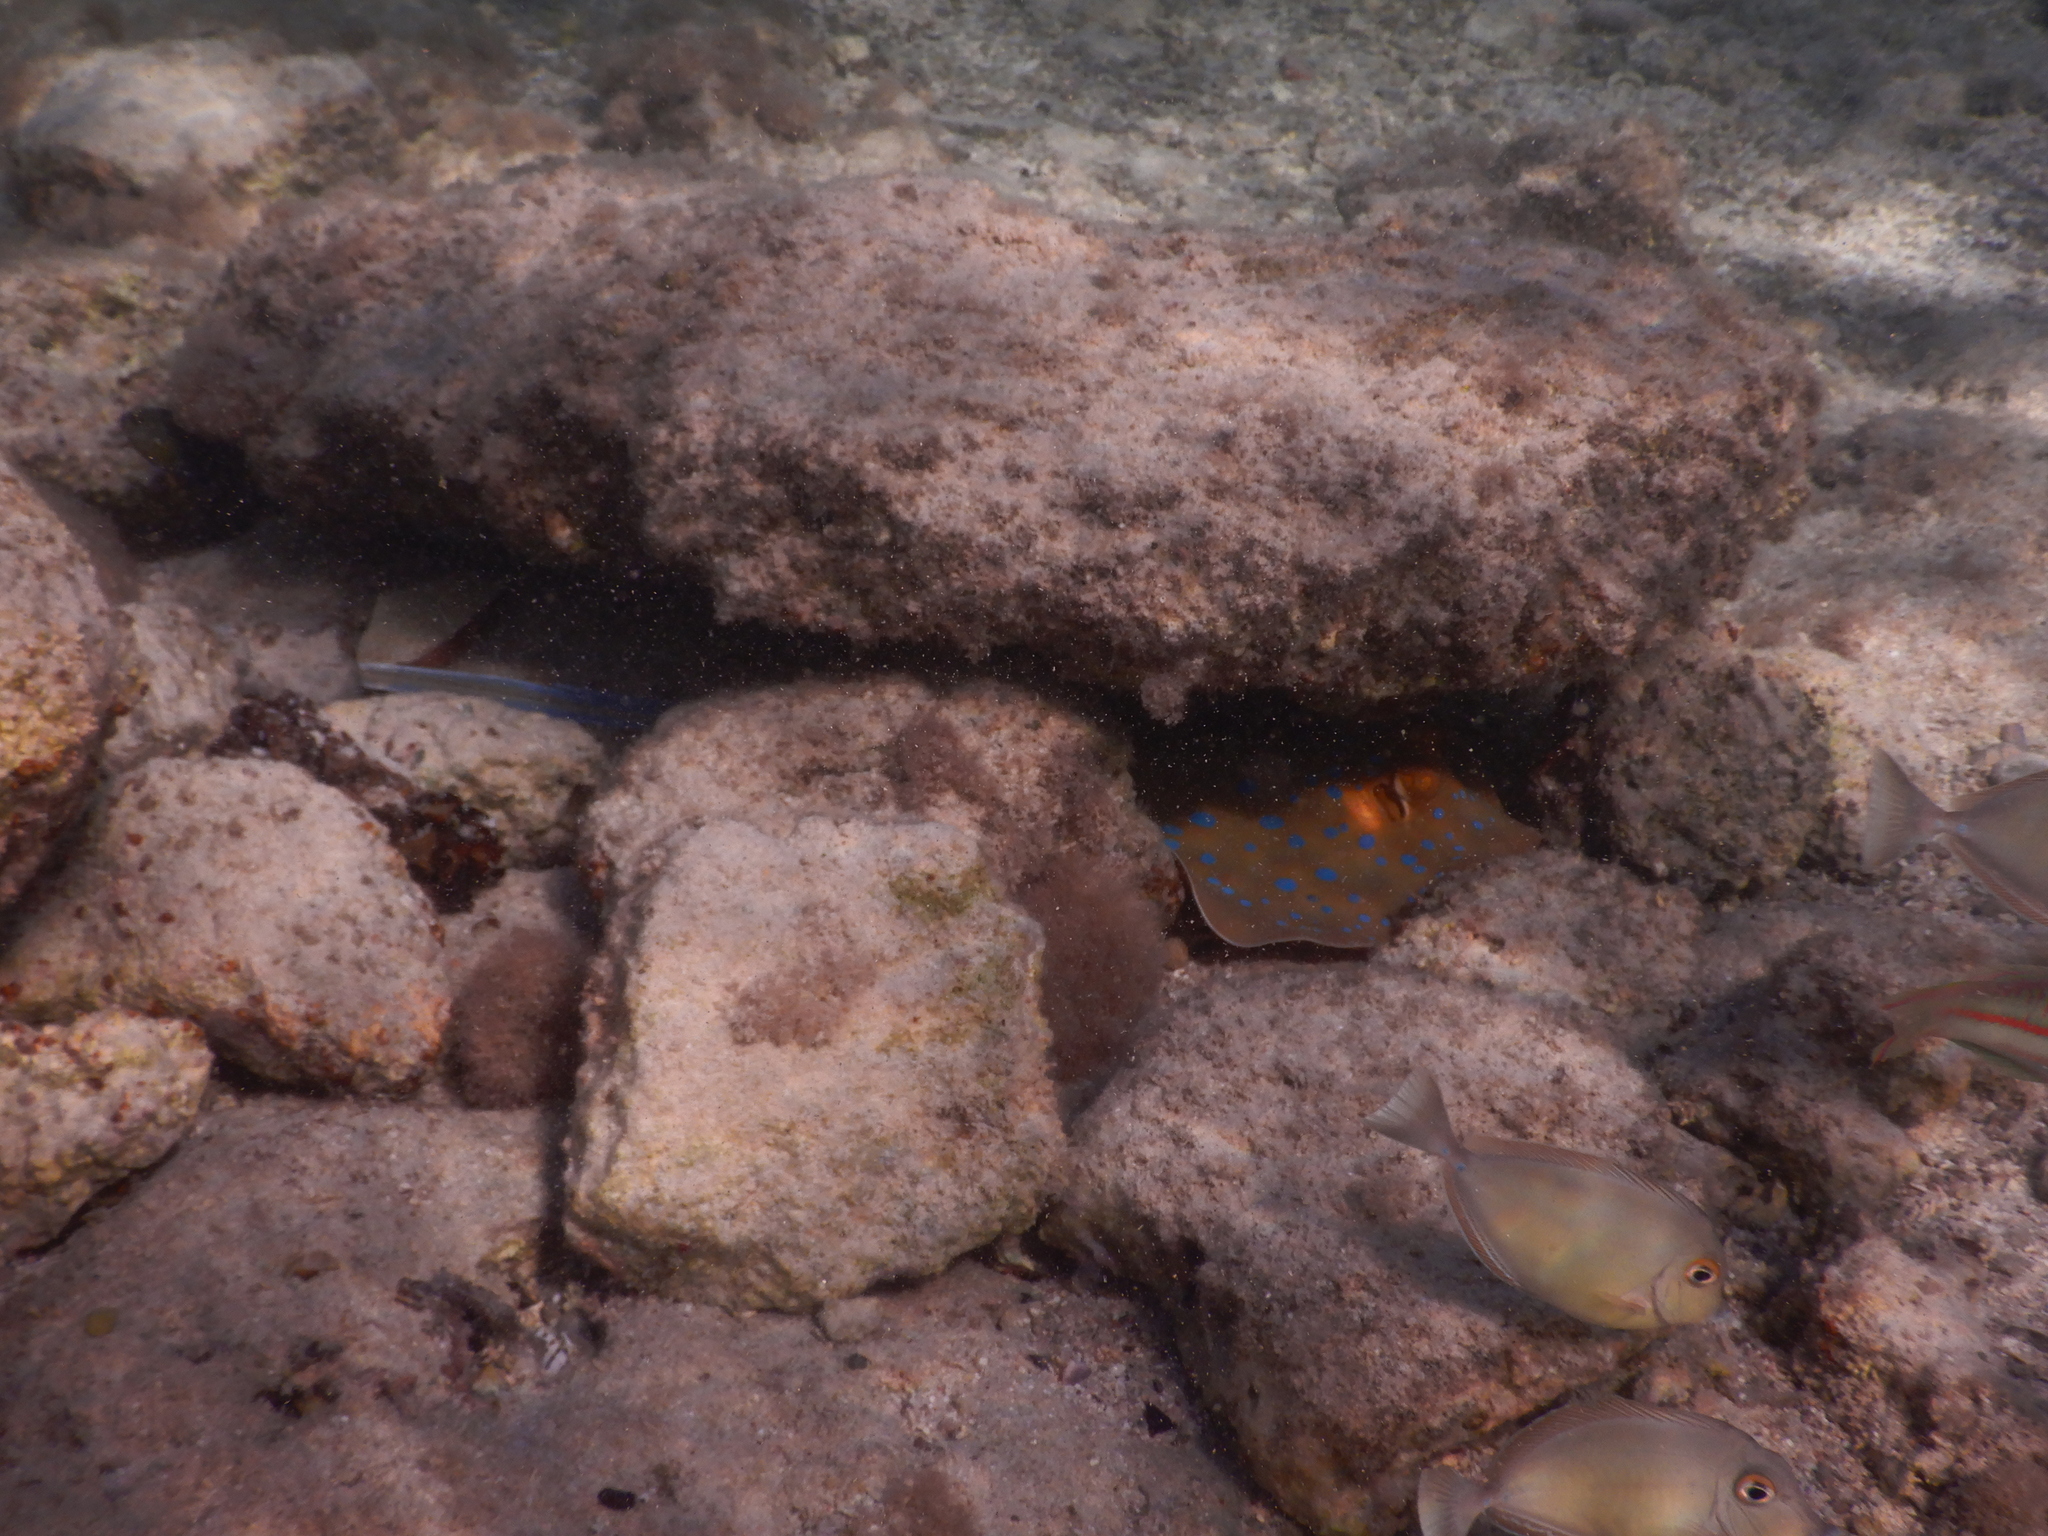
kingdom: Animalia
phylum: Chordata
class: Elasmobranchii
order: Myliobatiformes
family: Dasyatidae
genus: Taeniura
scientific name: Taeniura lymma
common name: Bluespotted ribbontail ray
